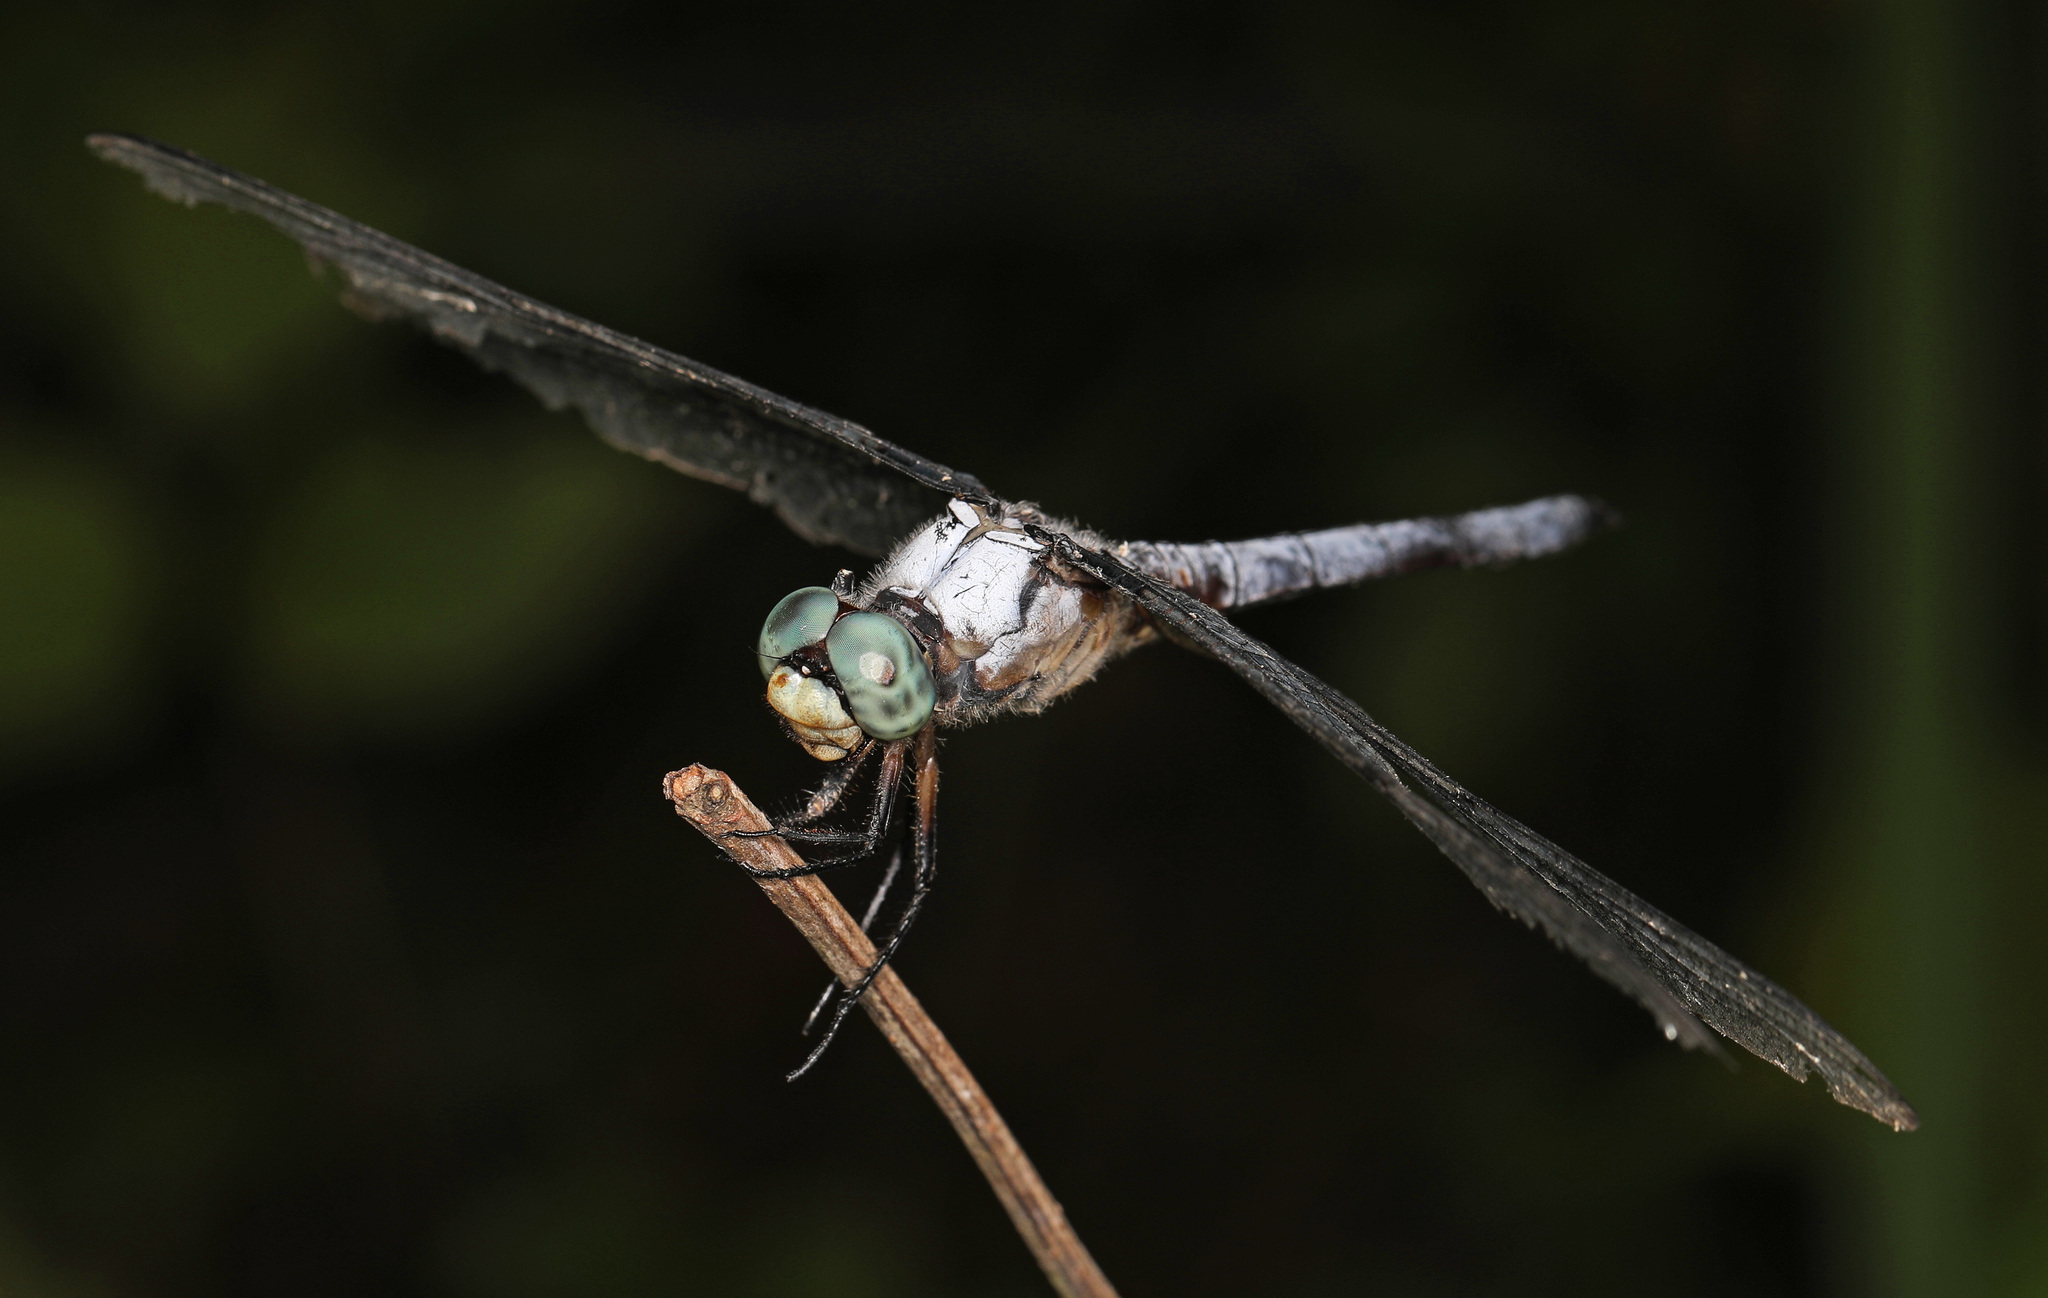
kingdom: Animalia
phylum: Arthropoda
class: Insecta
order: Odonata
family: Libellulidae
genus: Libellula
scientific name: Libellula vibrans
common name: Great blue skimmer
